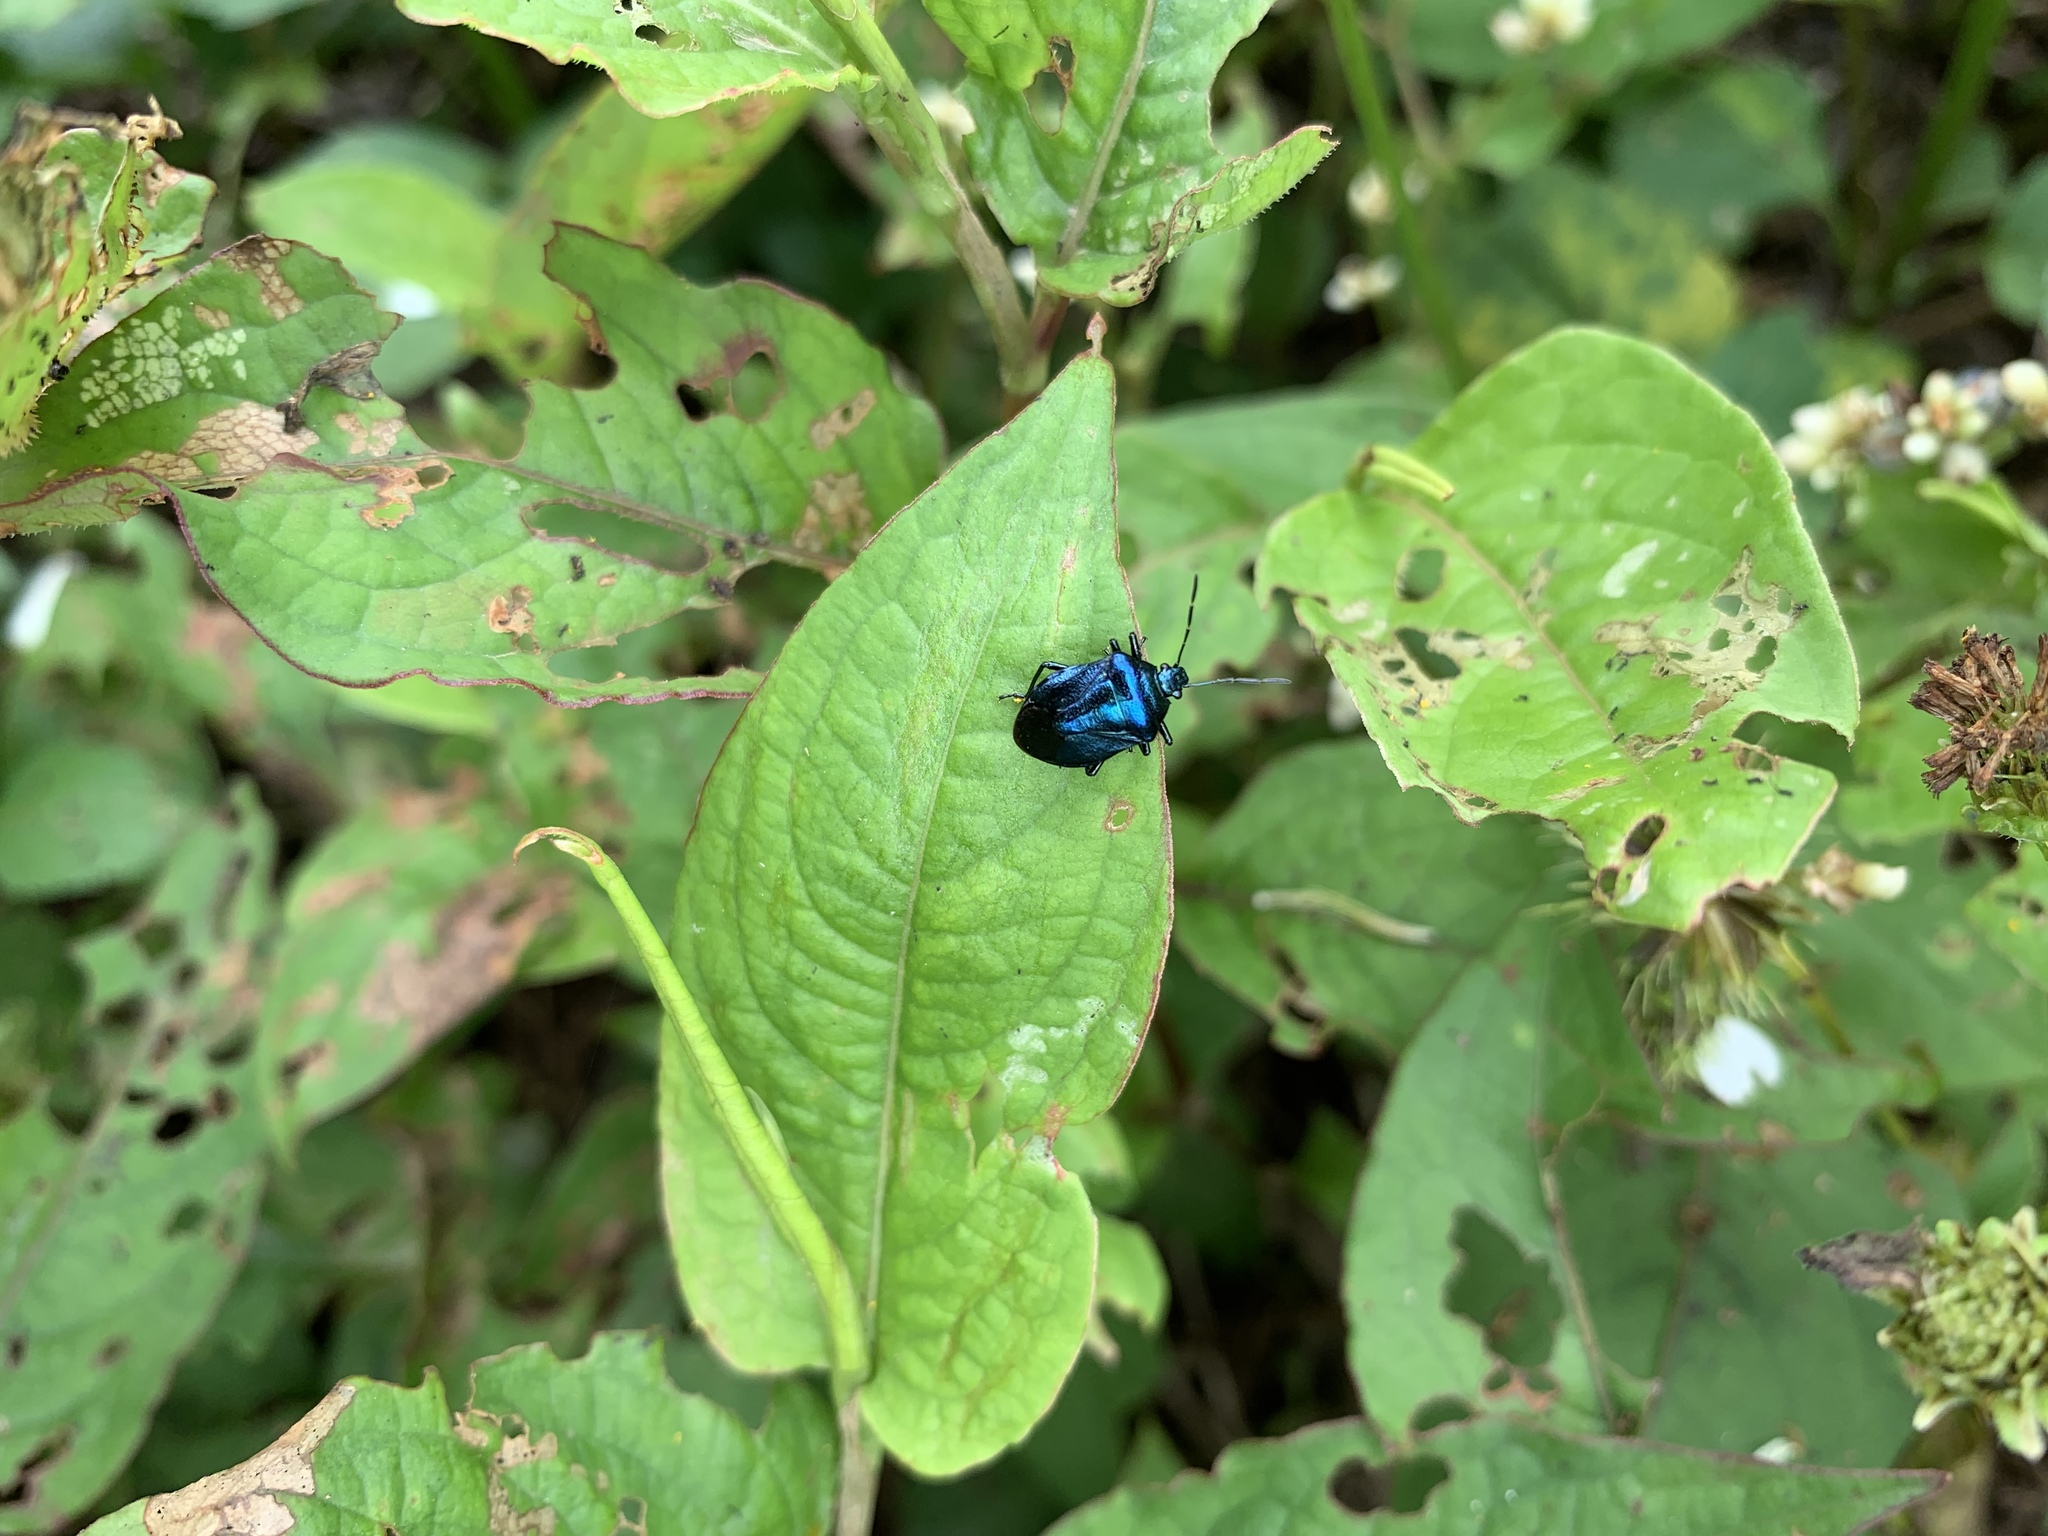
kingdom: Animalia
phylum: Arthropoda
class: Insecta
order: Hemiptera
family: Pentatomidae
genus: Zicrona
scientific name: Zicrona caerulea
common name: Blue shieldbug
